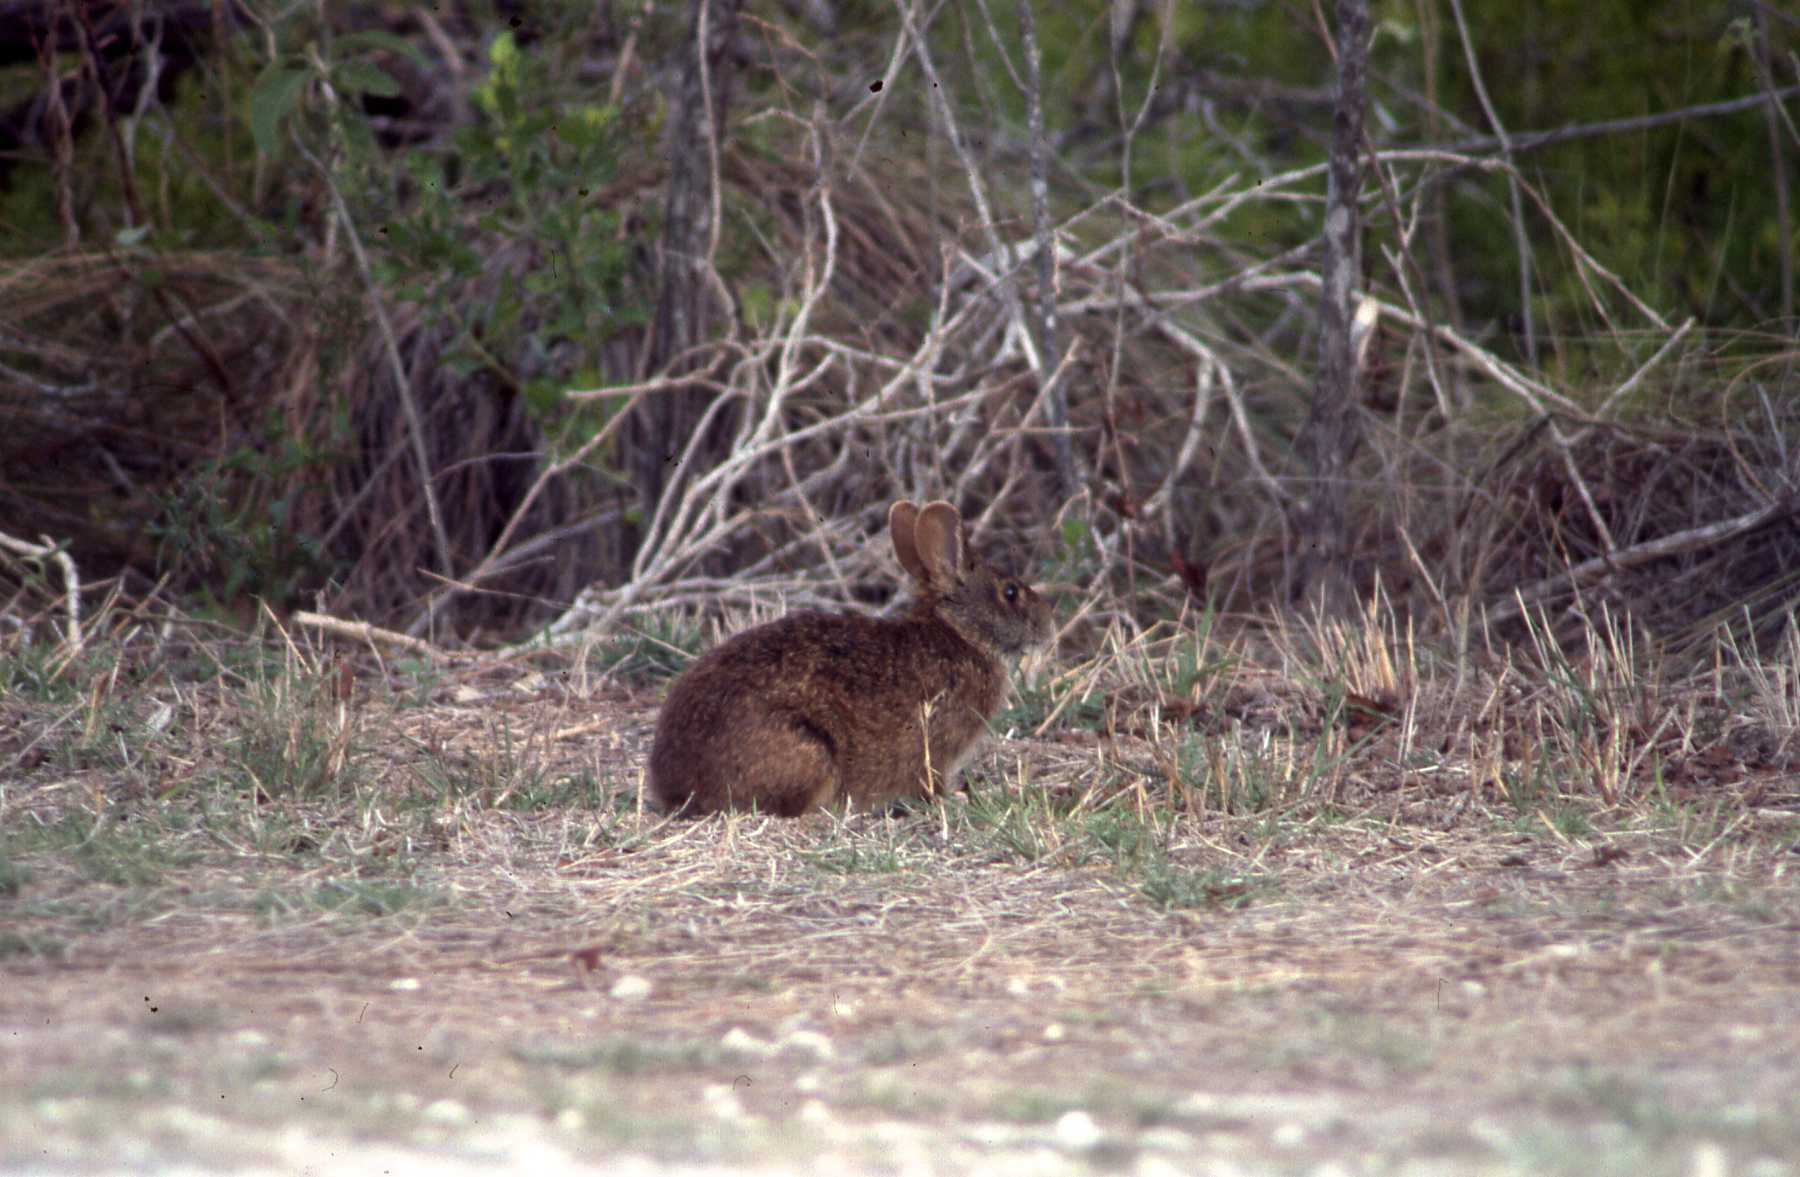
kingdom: Animalia
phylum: Chordata
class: Mammalia
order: Lagomorpha
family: Leporidae
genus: Sylvilagus
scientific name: Sylvilagus palustris
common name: Marsh rabbit
